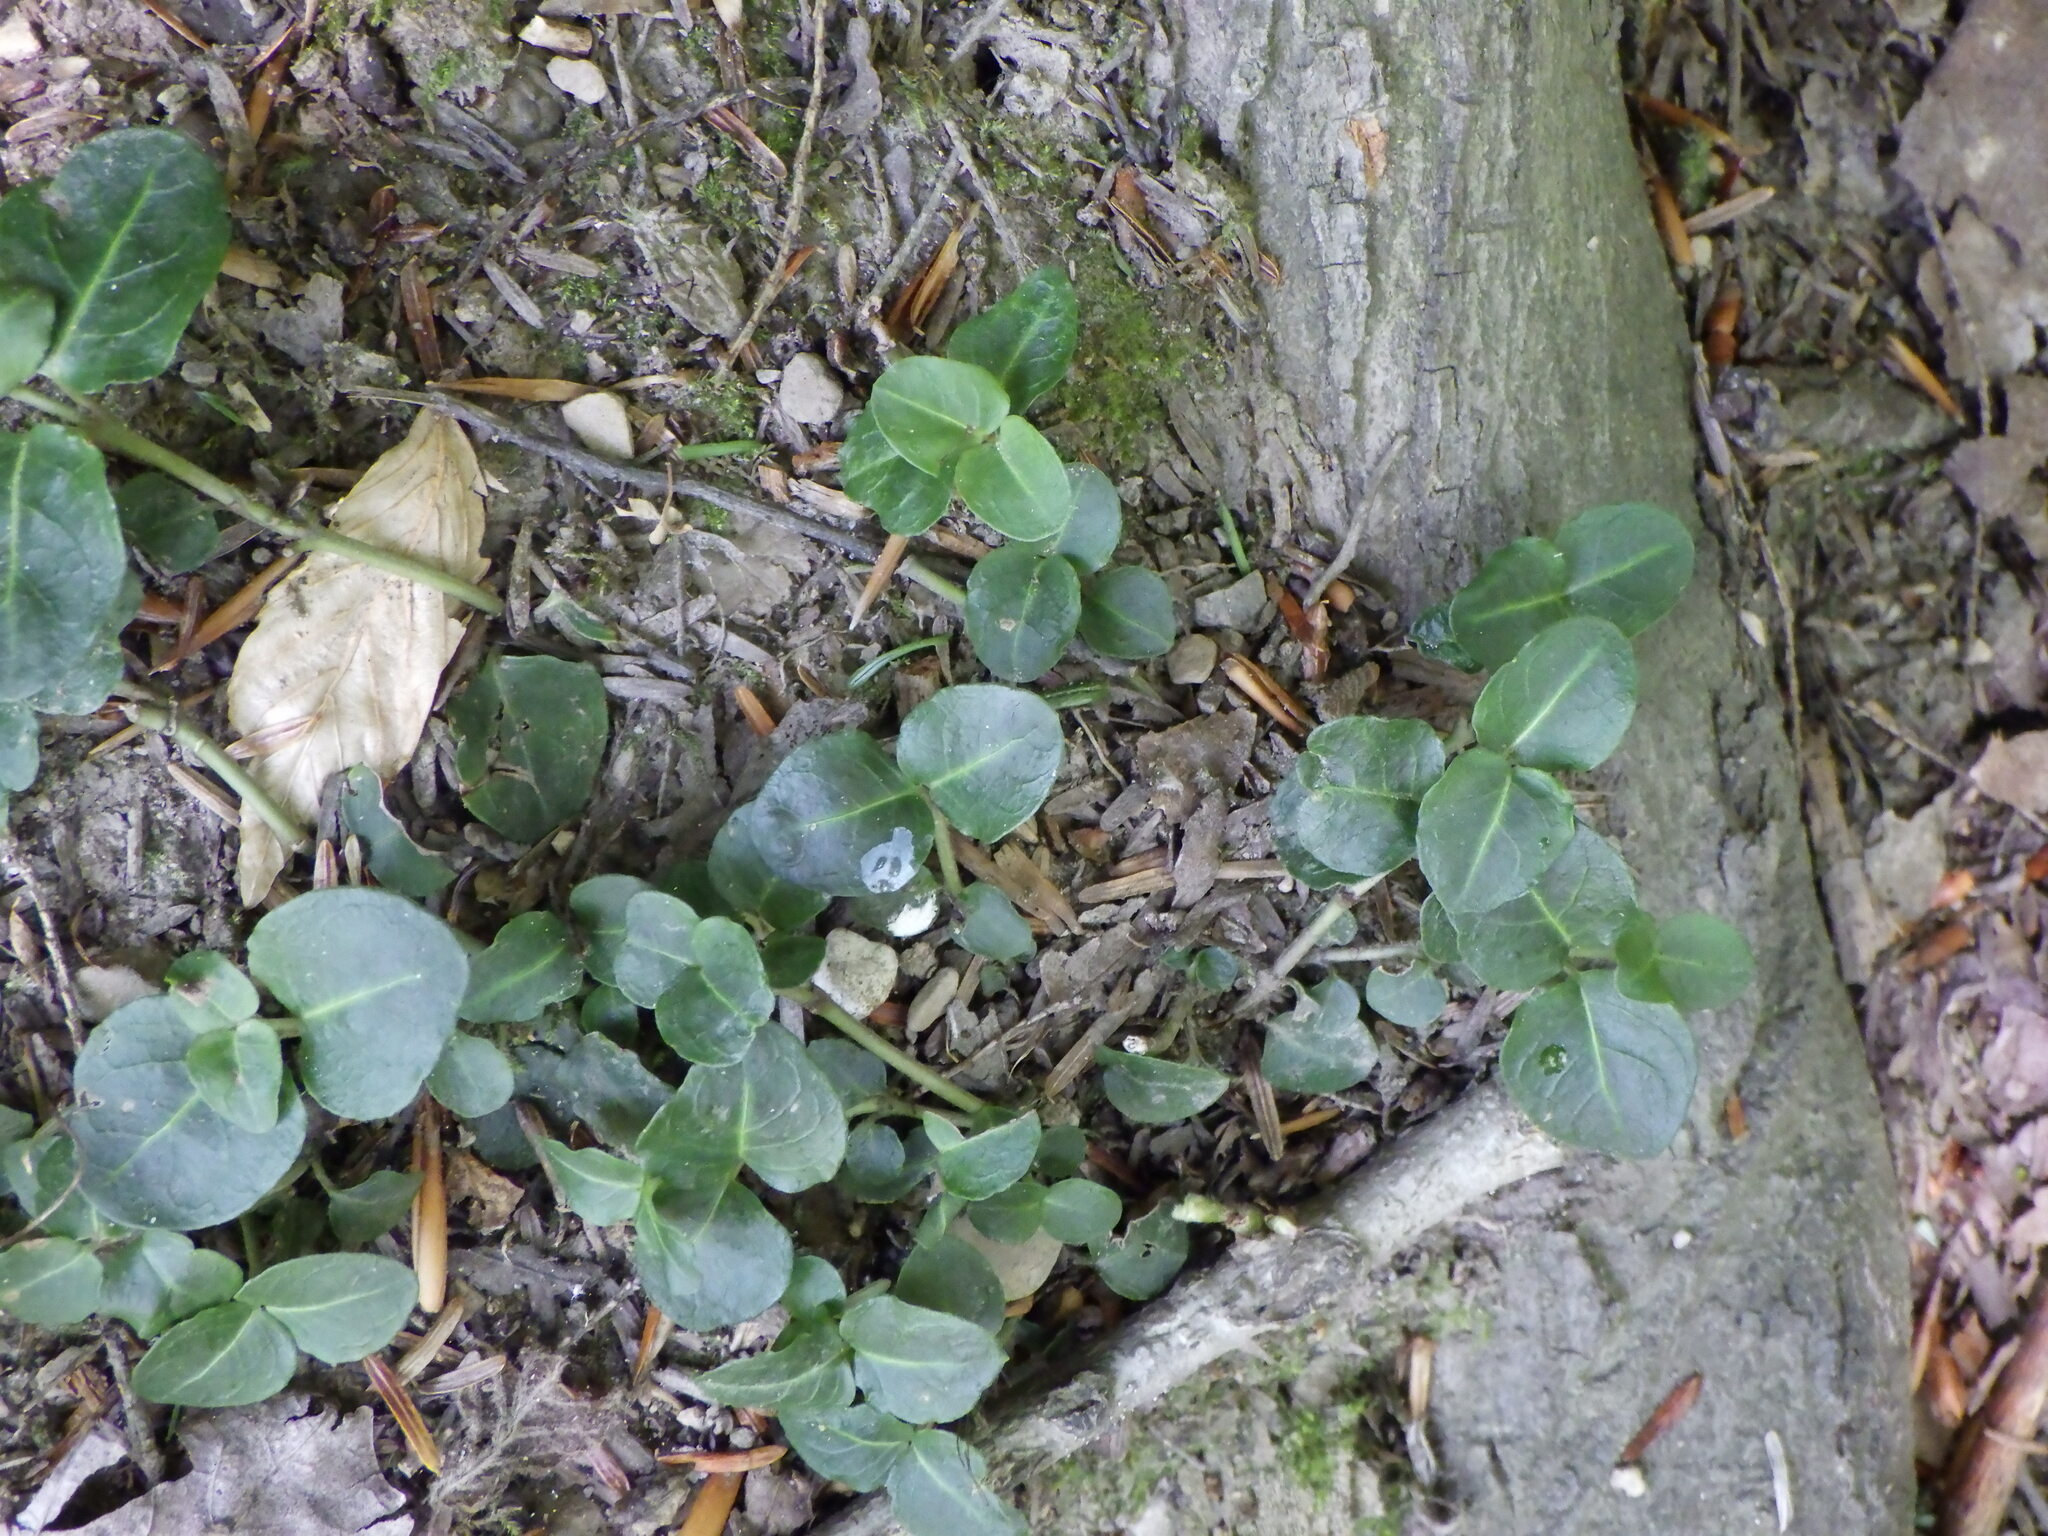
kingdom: Plantae
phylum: Tracheophyta
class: Magnoliopsida
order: Gentianales
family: Rubiaceae
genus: Mitchella
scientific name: Mitchella repens
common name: Partridge-berry
